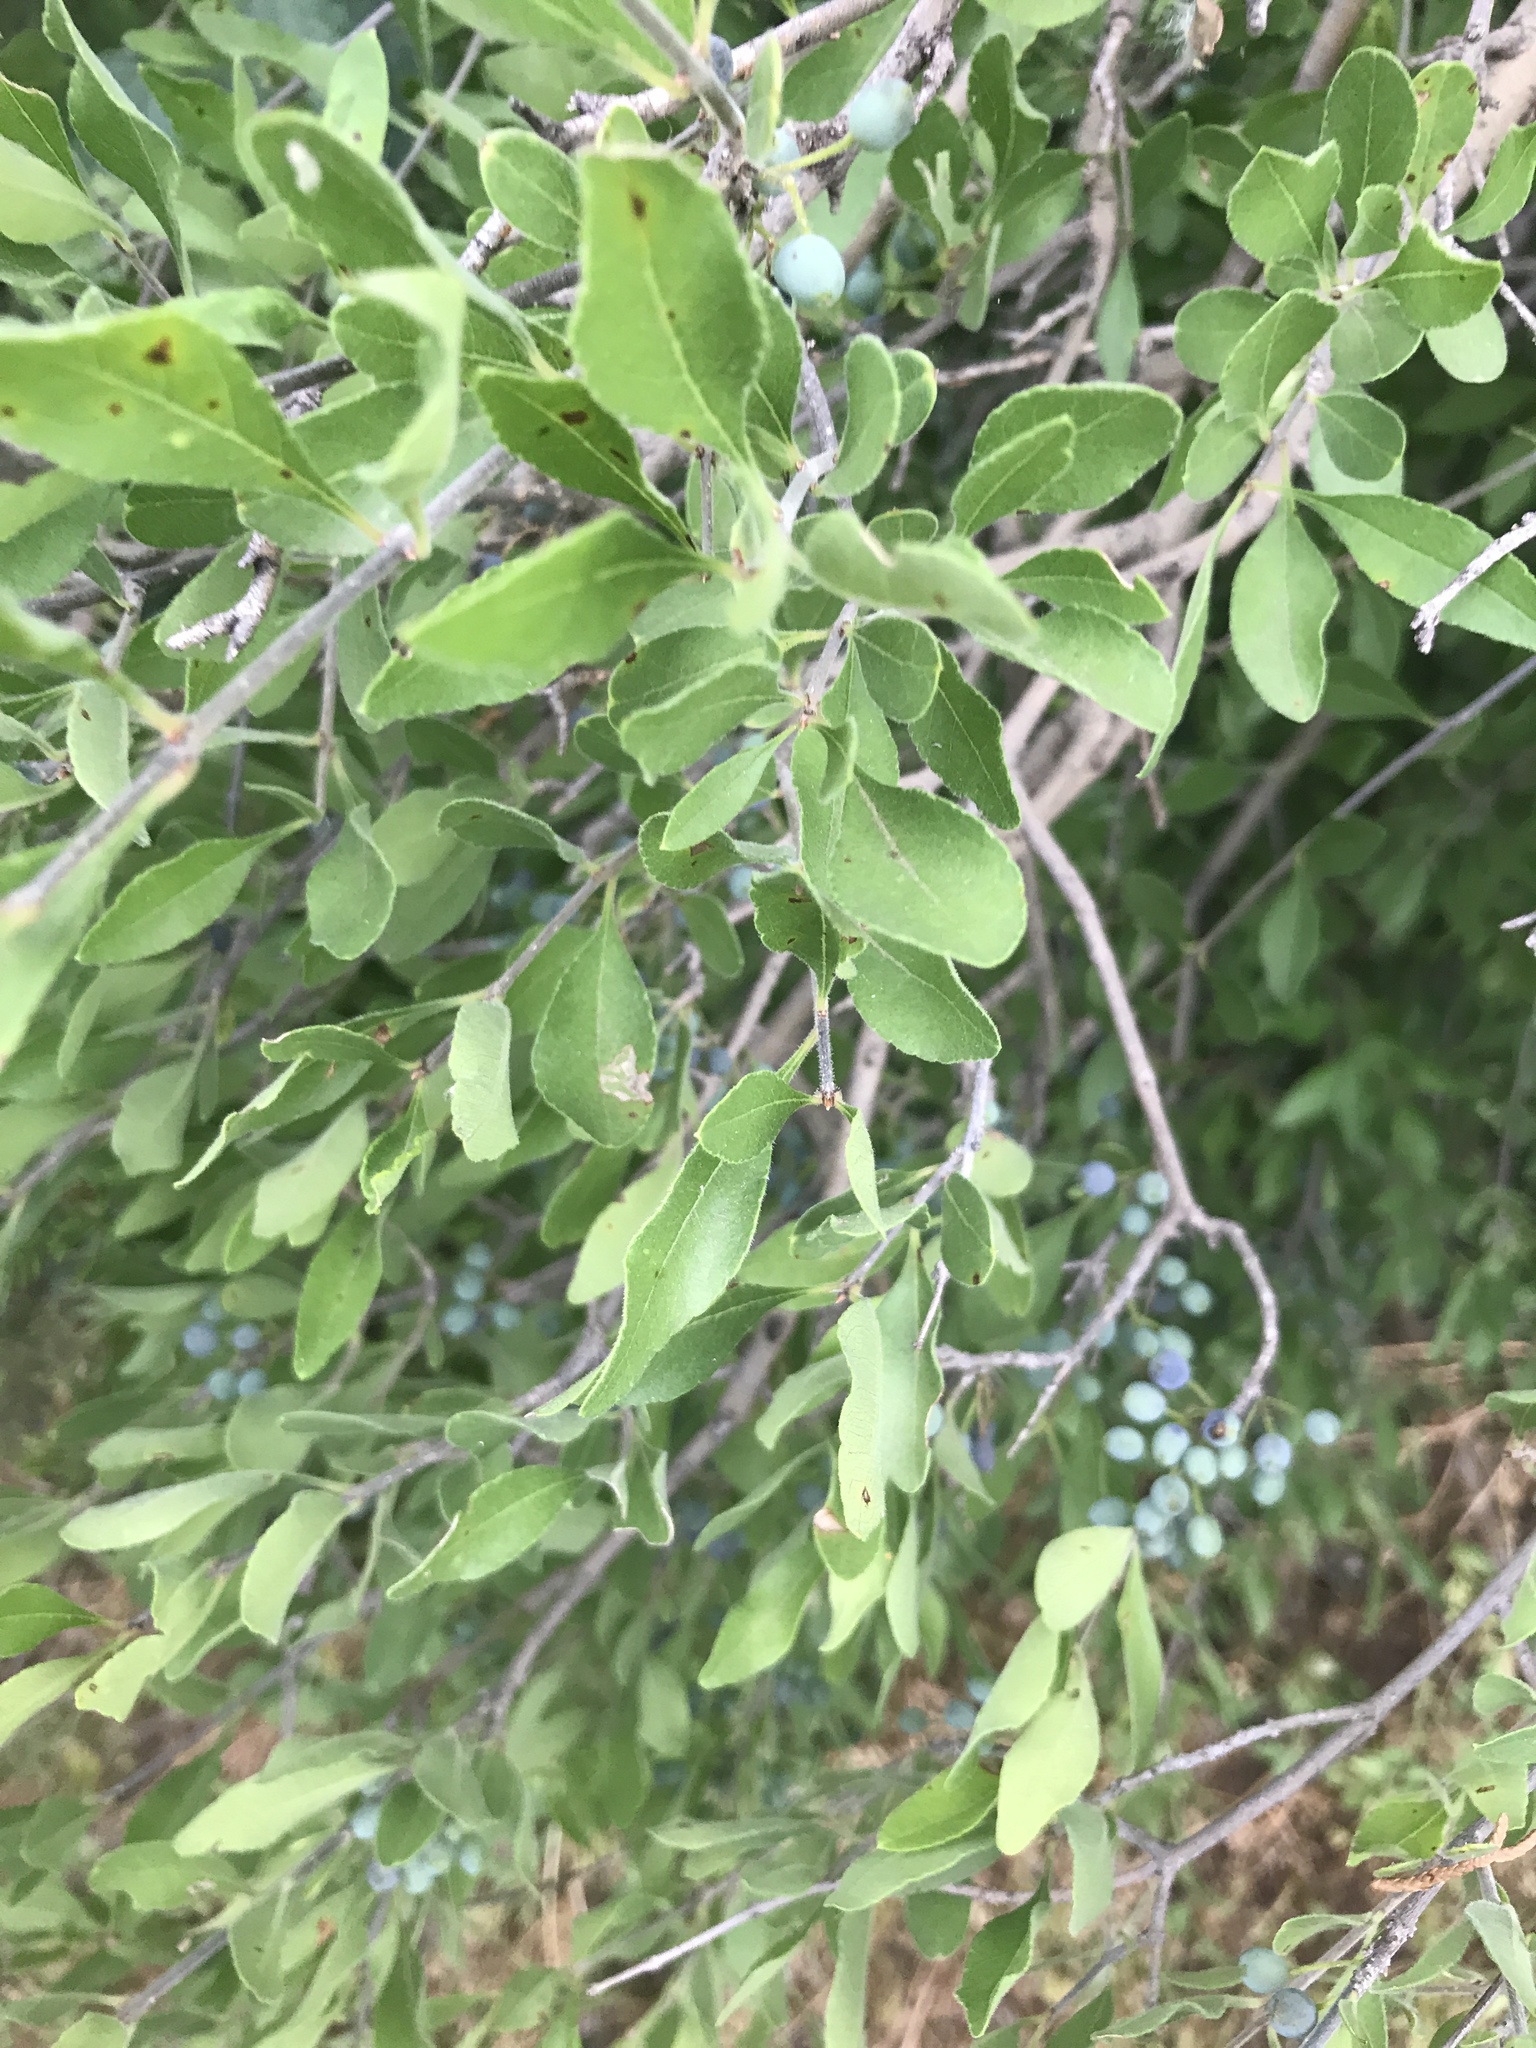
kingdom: Plantae
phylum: Tracheophyta
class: Magnoliopsida
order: Lamiales
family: Oleaceae
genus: Forestiera
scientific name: Forestiera pubescens
